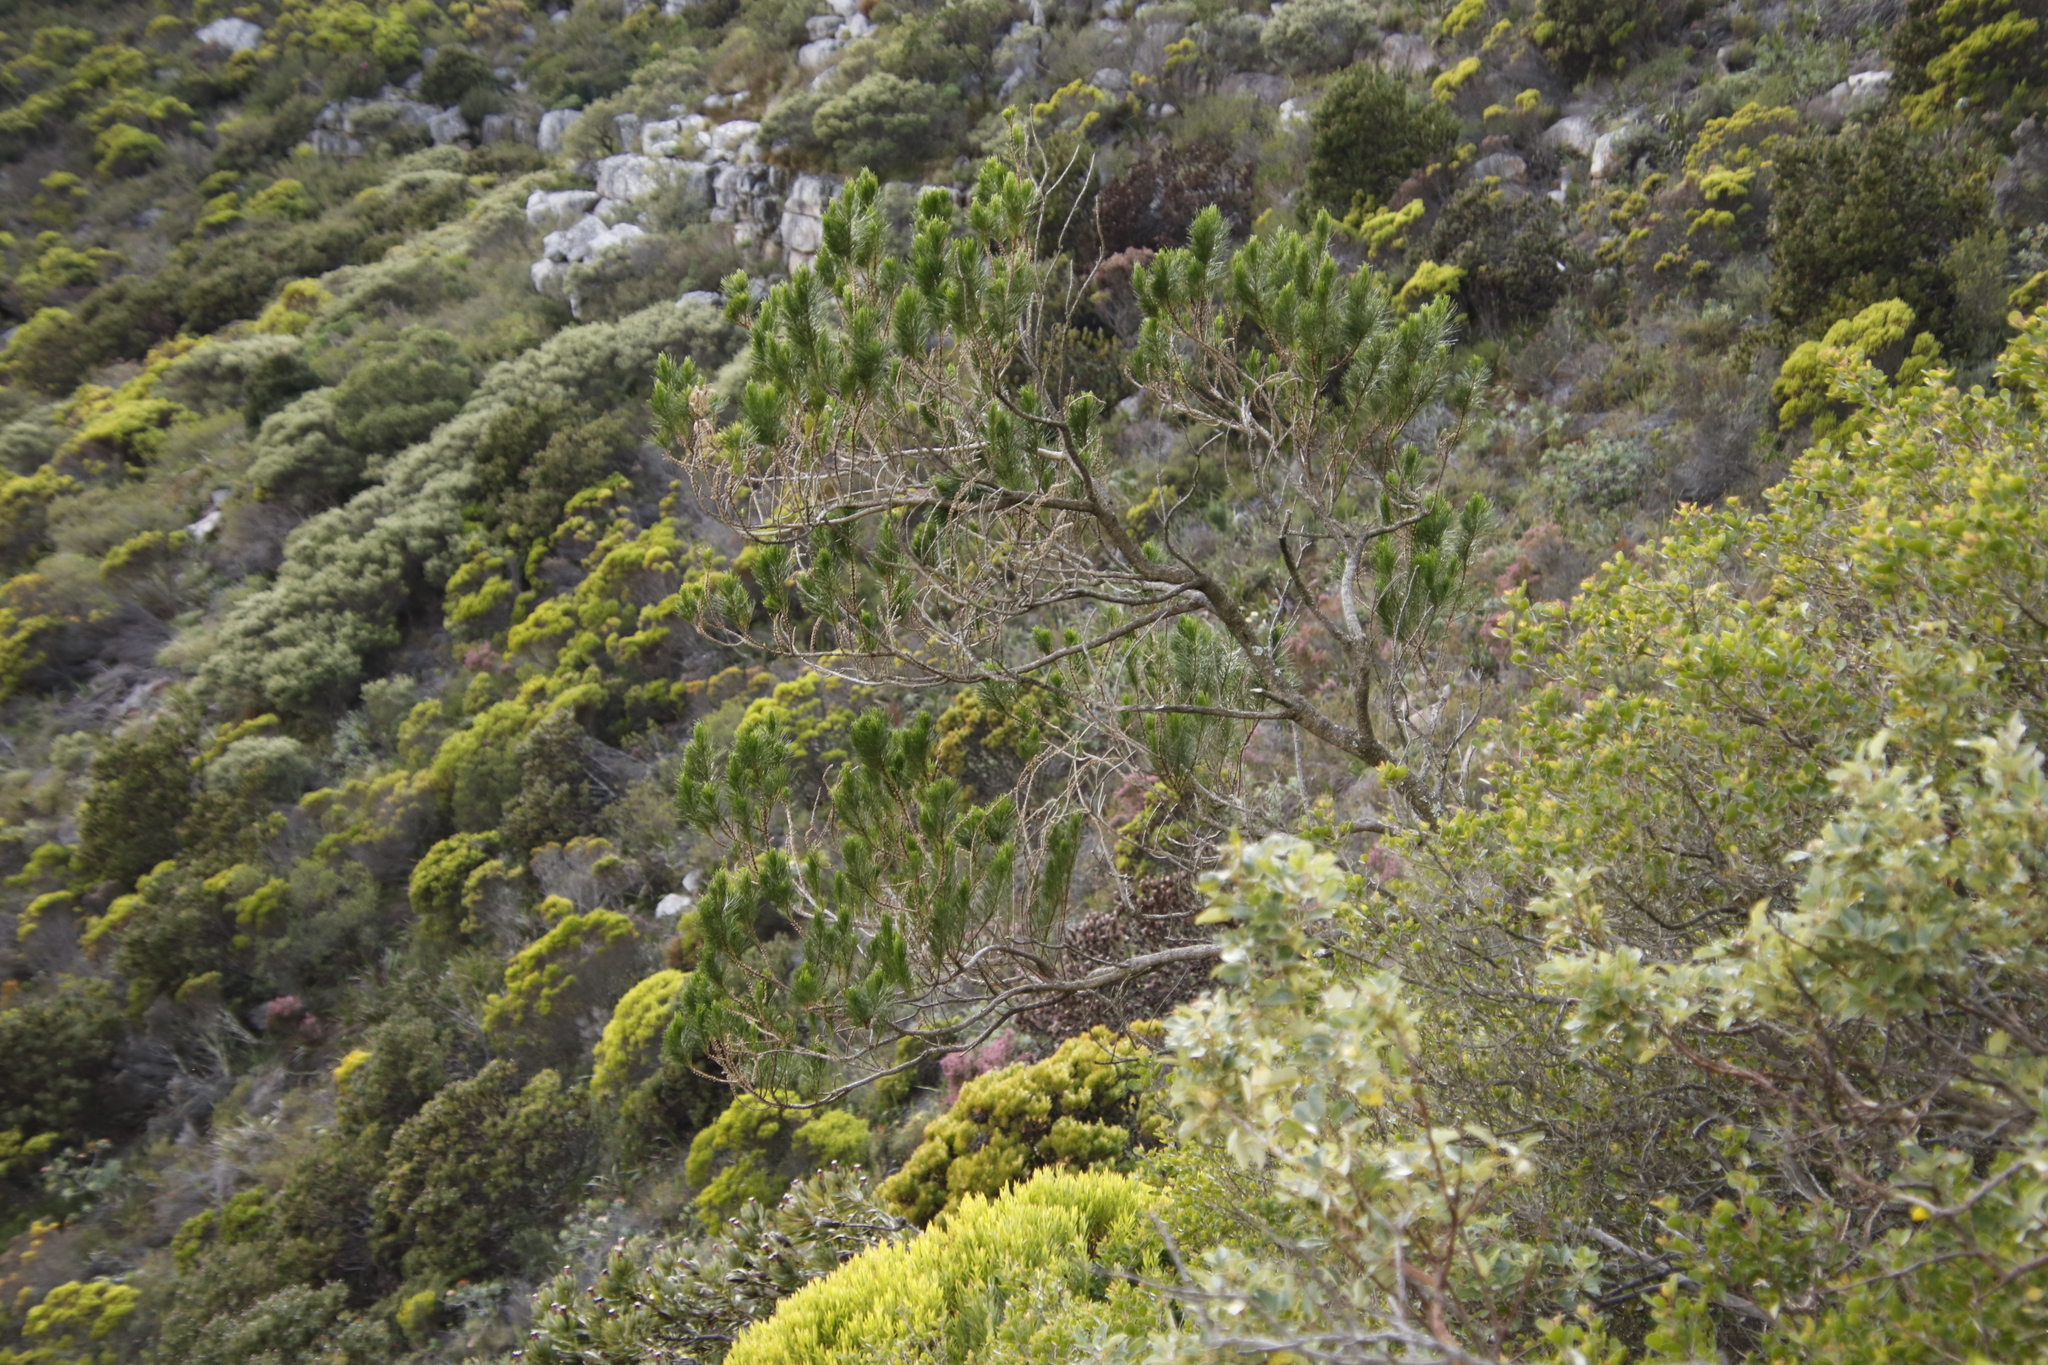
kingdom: Plantae
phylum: Tracheophyta
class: Magnoliopsida
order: Fabales
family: Fabaceae
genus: Psoralea
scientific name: Psoralea pinnata
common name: African scurfpea
